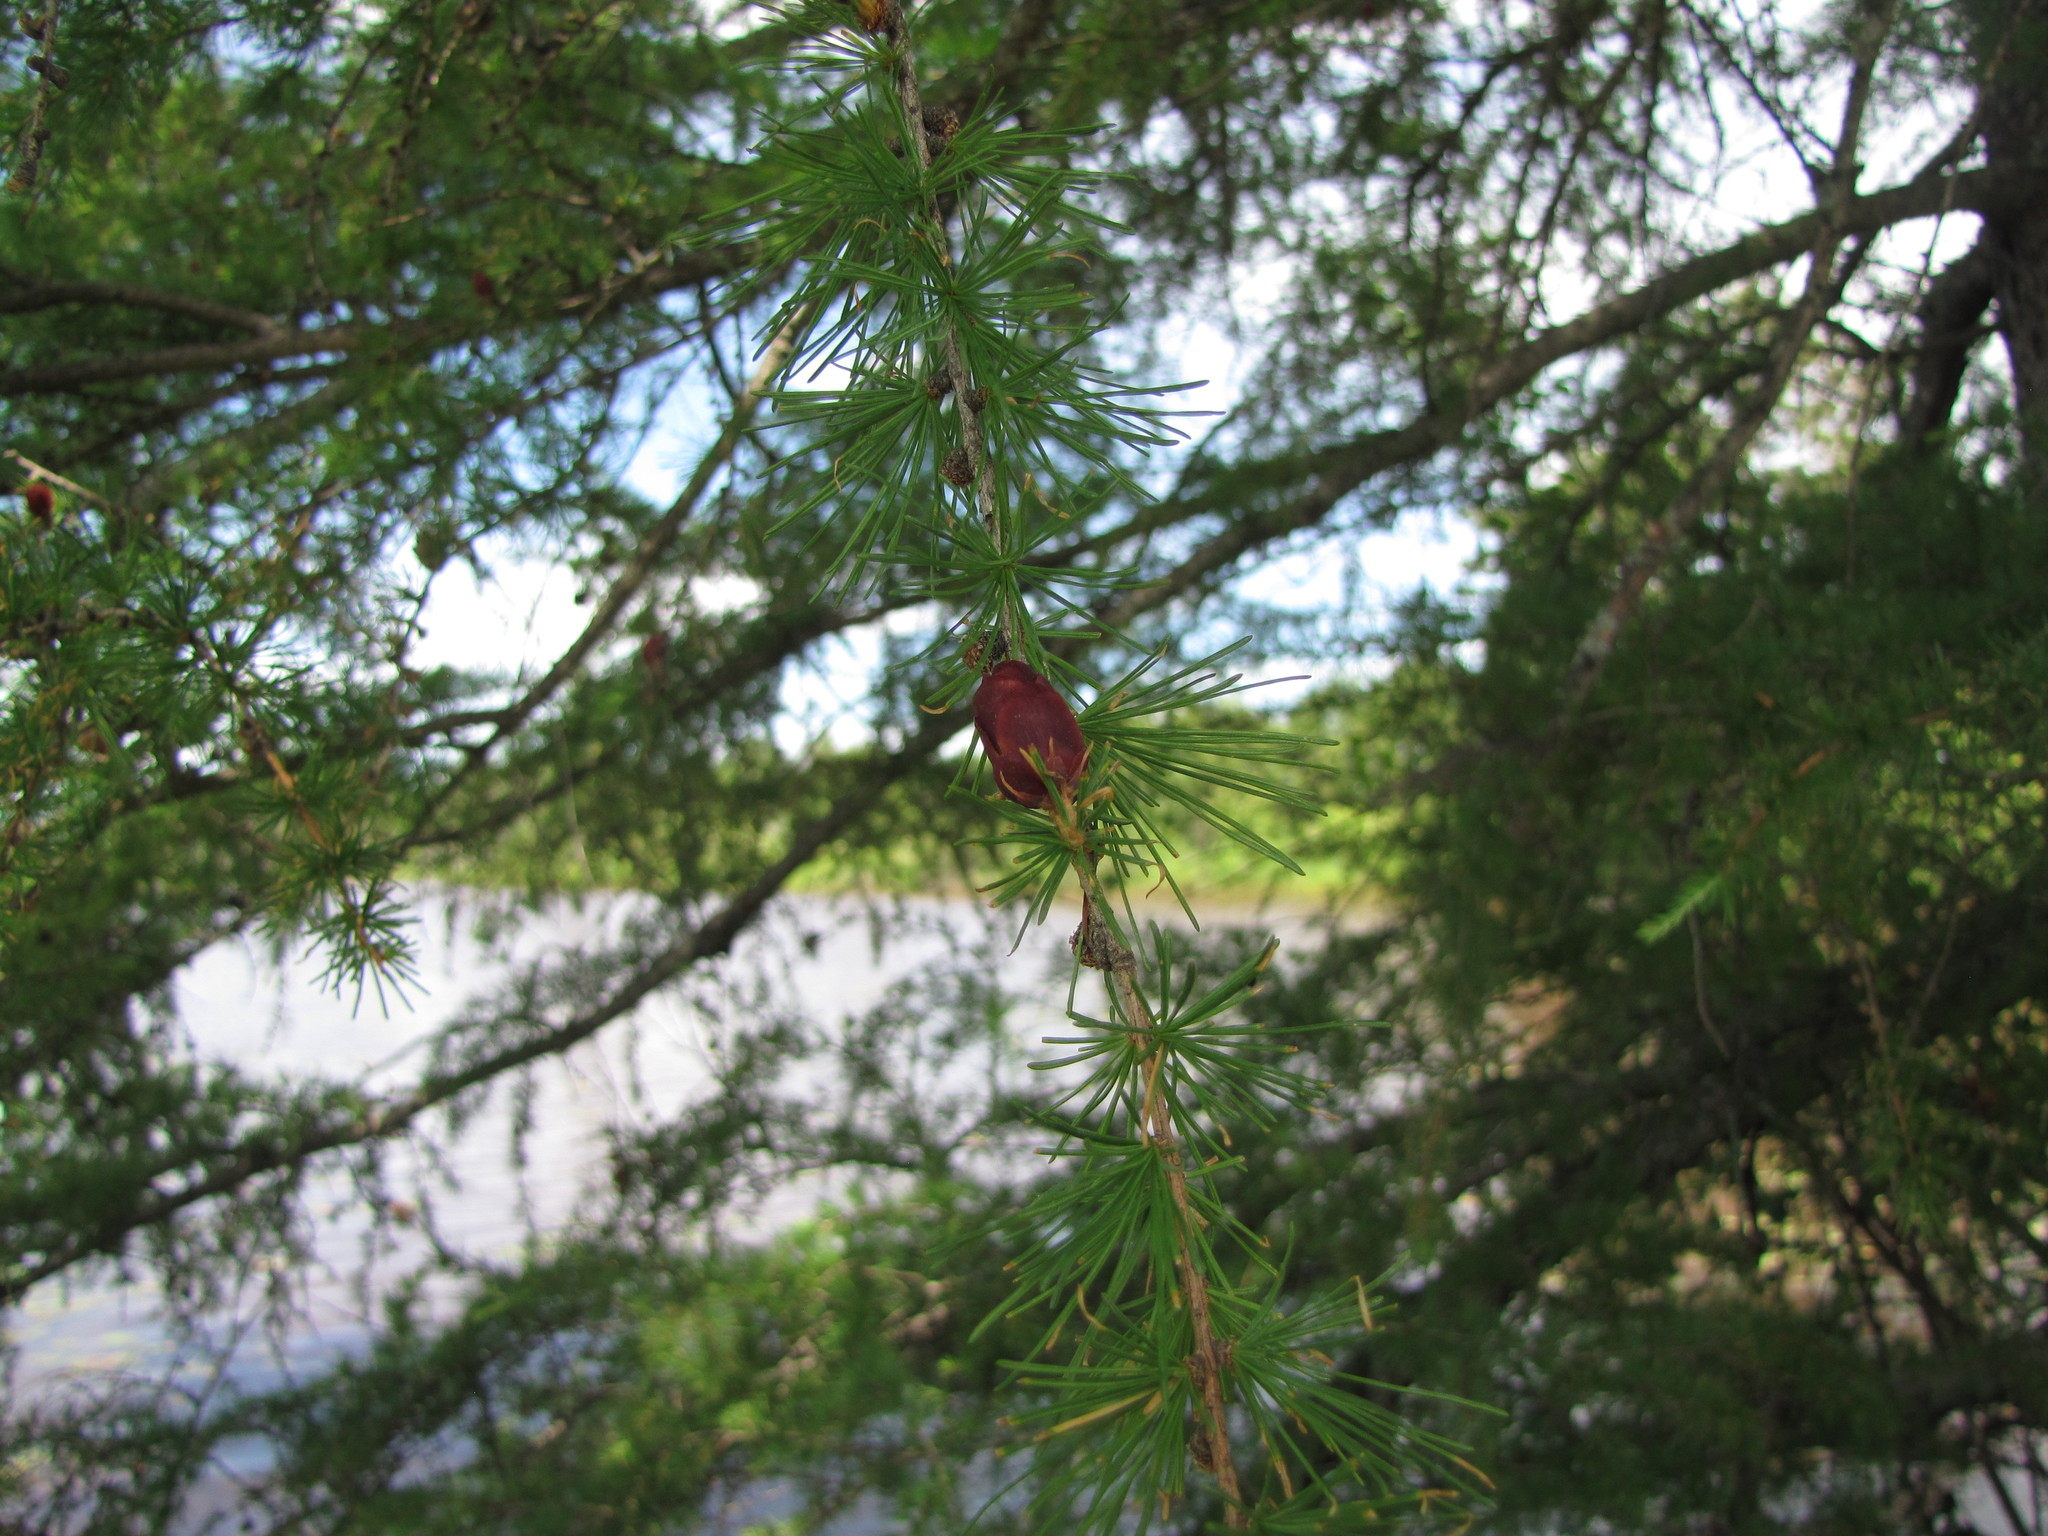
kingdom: Plantae
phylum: Tracheophyta
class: Pinopsida
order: Pinales
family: Pinaceae
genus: Larix
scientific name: Larix laricina
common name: American larch
